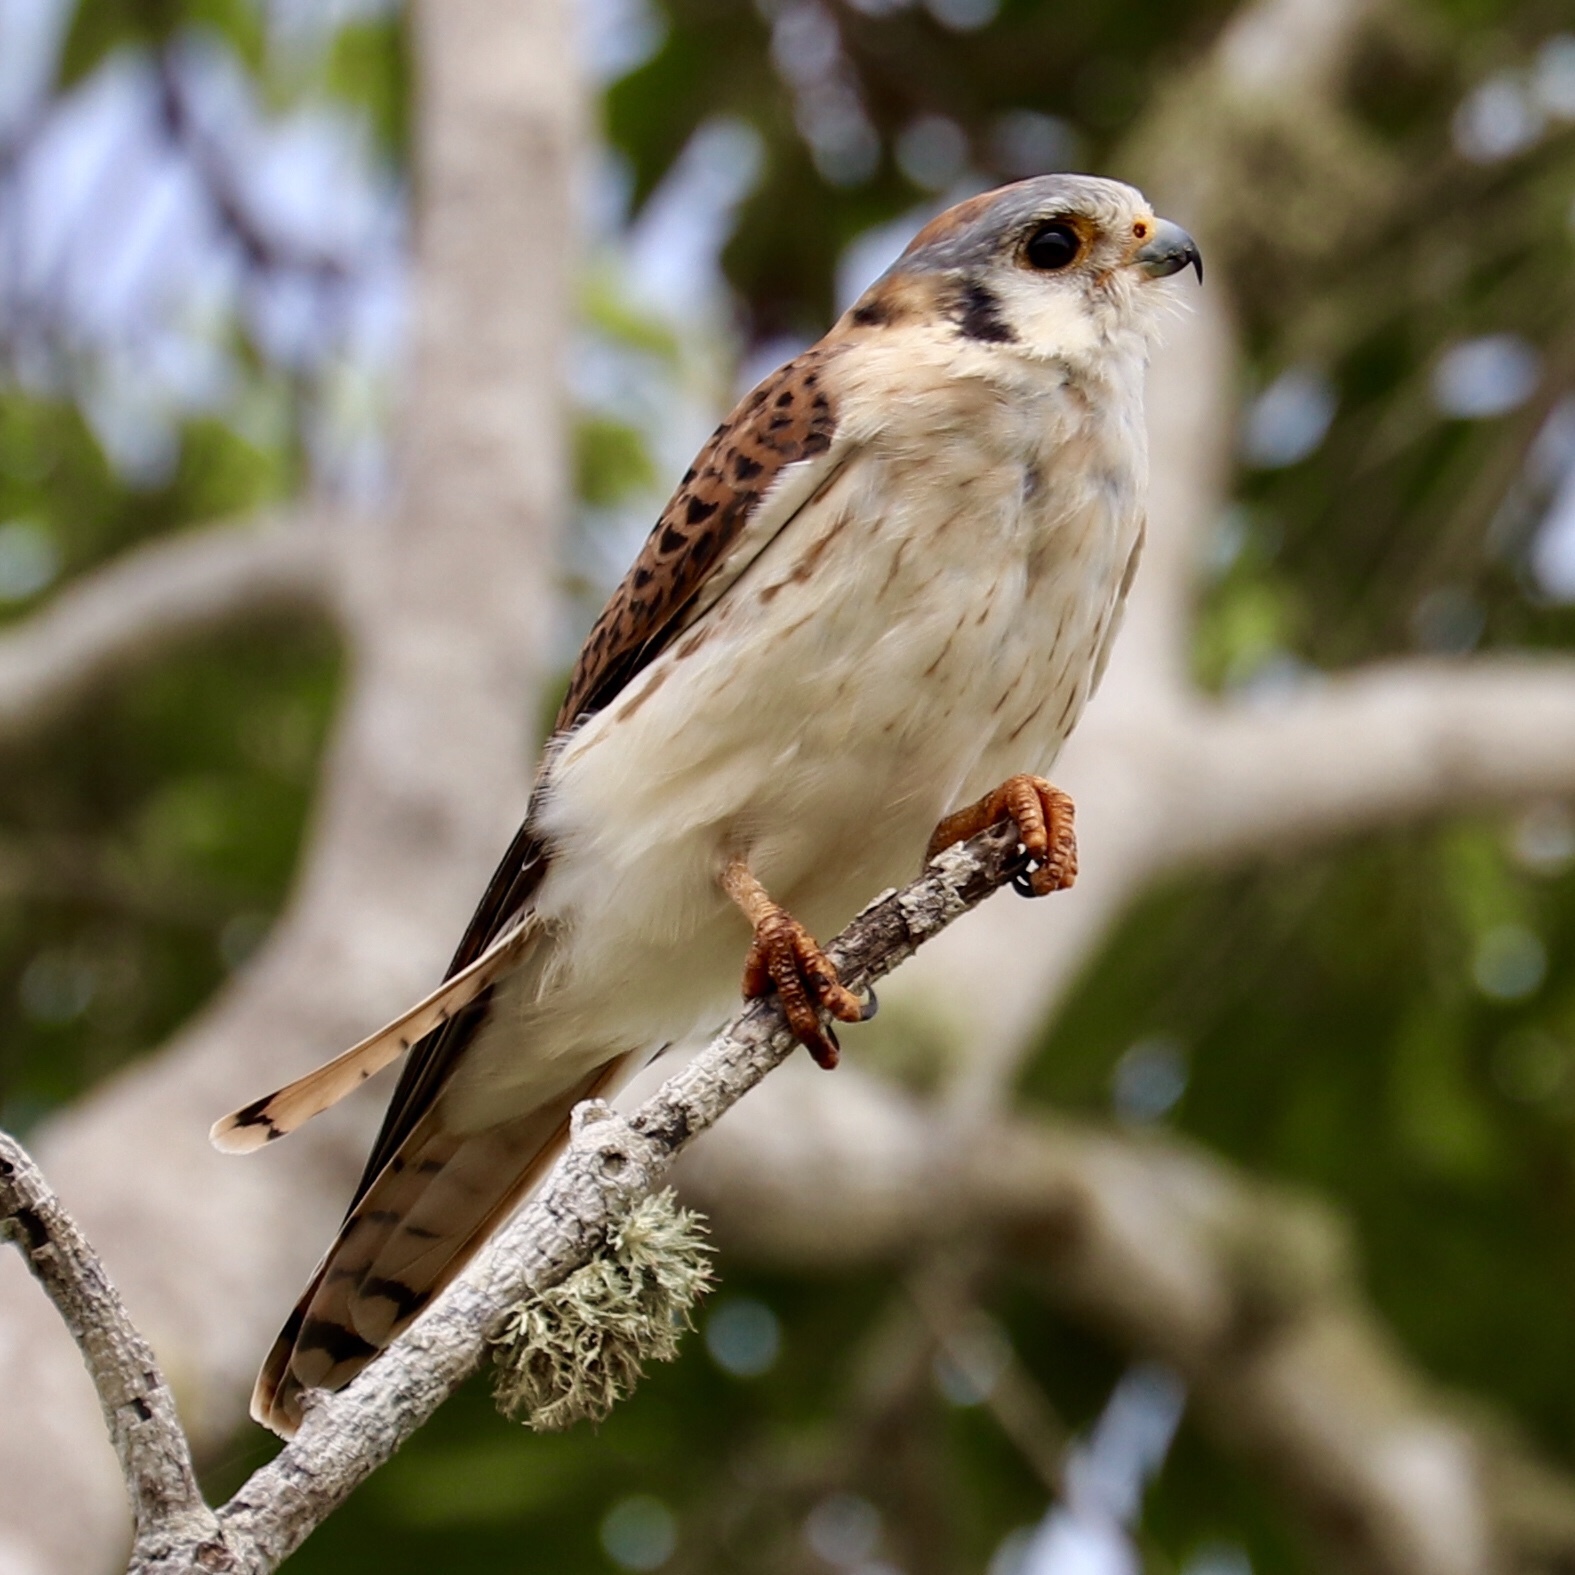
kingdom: Animalia
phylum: Chordata
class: Aves
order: Falconiformes
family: Falconidae
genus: Falco
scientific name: Falco sparverius
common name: American kestrel
